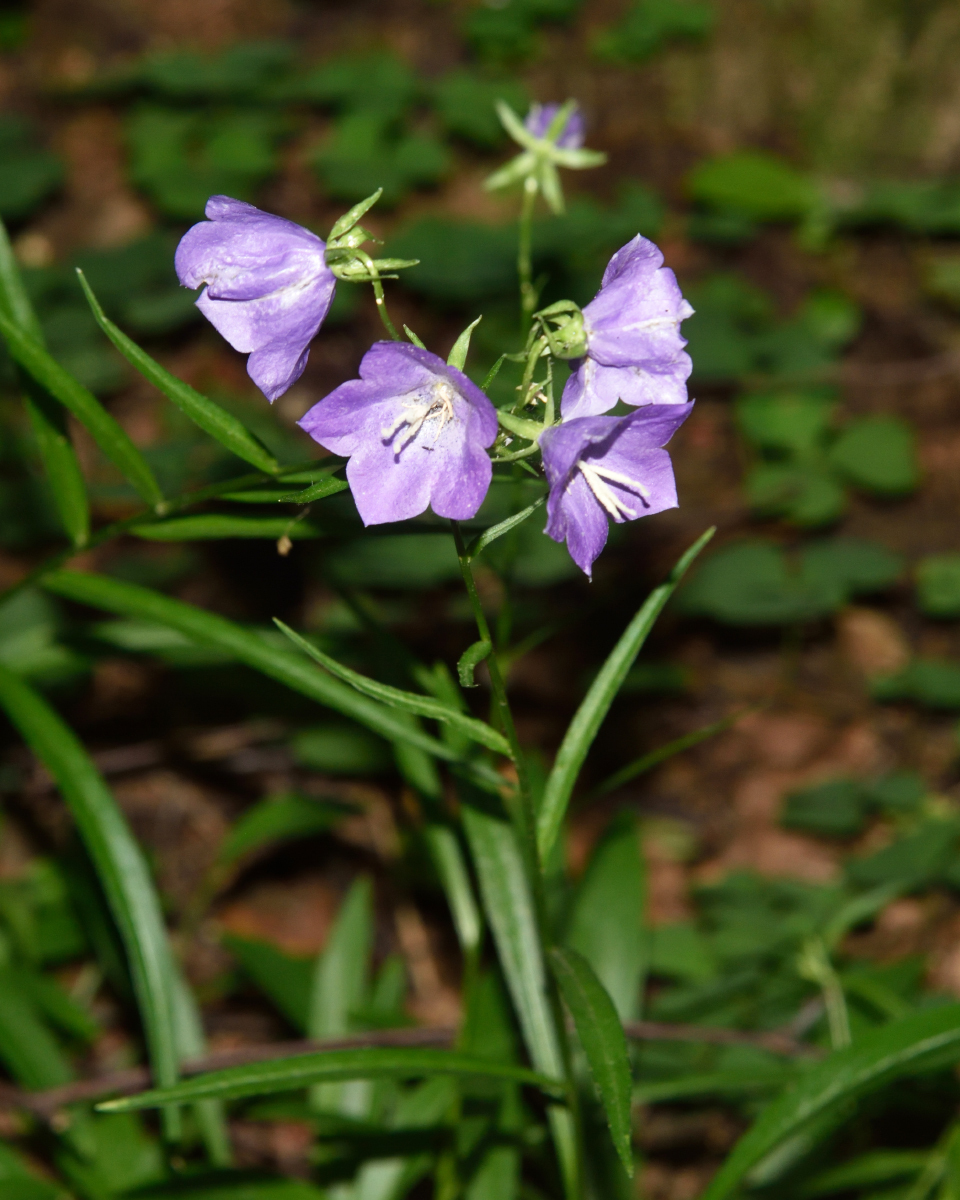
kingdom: Plantae
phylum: Tracheophyta
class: Magnoliopsida
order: Asterales
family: Campanulaceae
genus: Campanula
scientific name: Campanula persicifolia
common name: Peach-leaved bellflower
